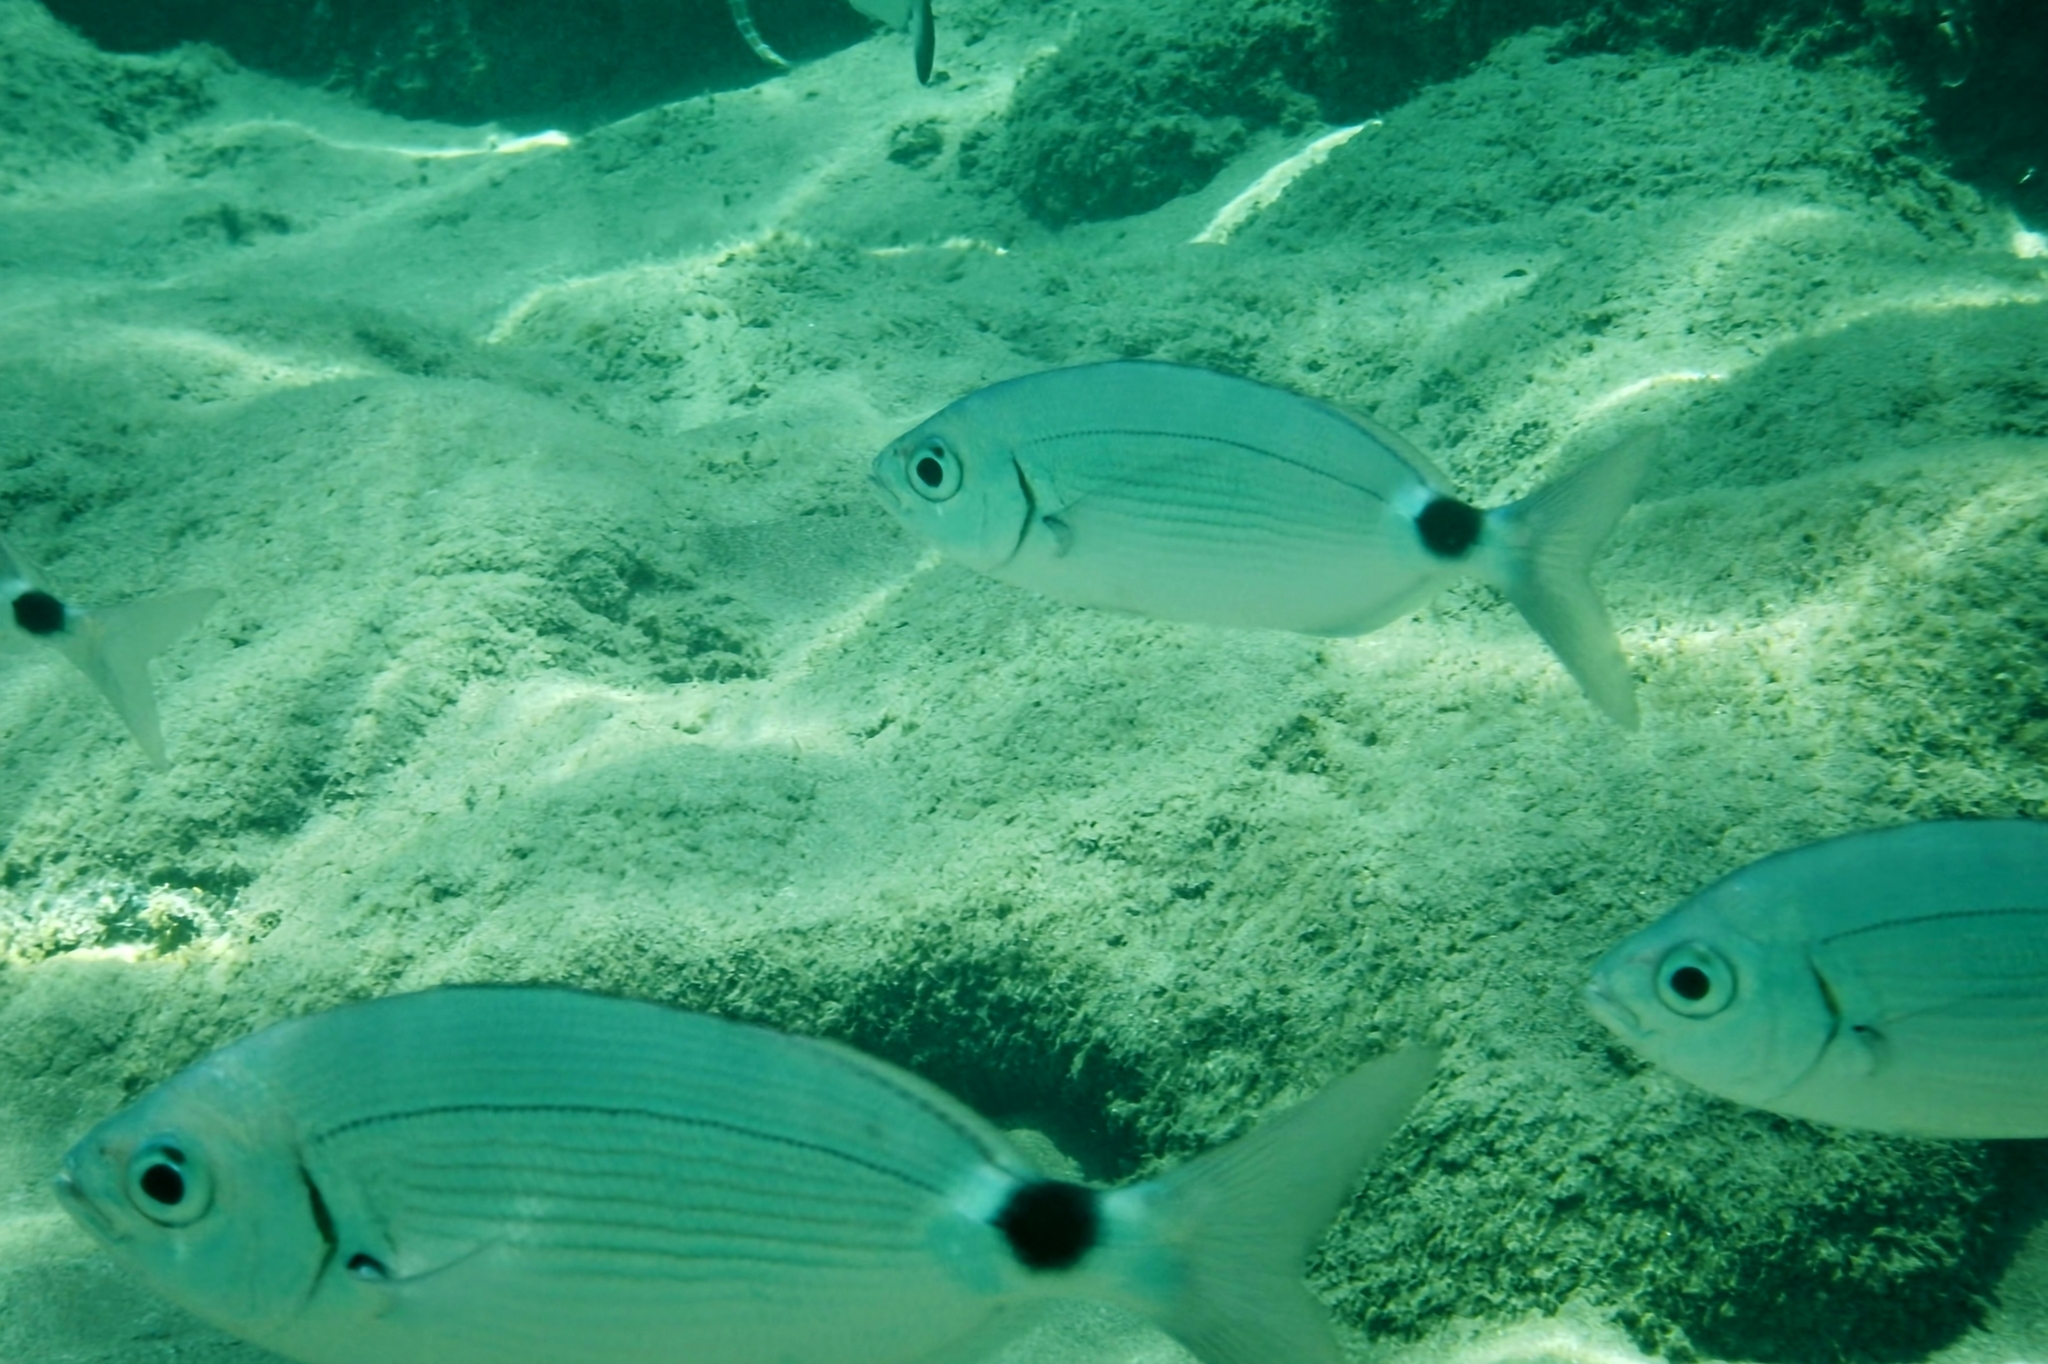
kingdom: Animalia
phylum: Chordata
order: Perciformes
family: Sparidae
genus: Oblada
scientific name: Oblada melanura
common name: Saddled seabream
